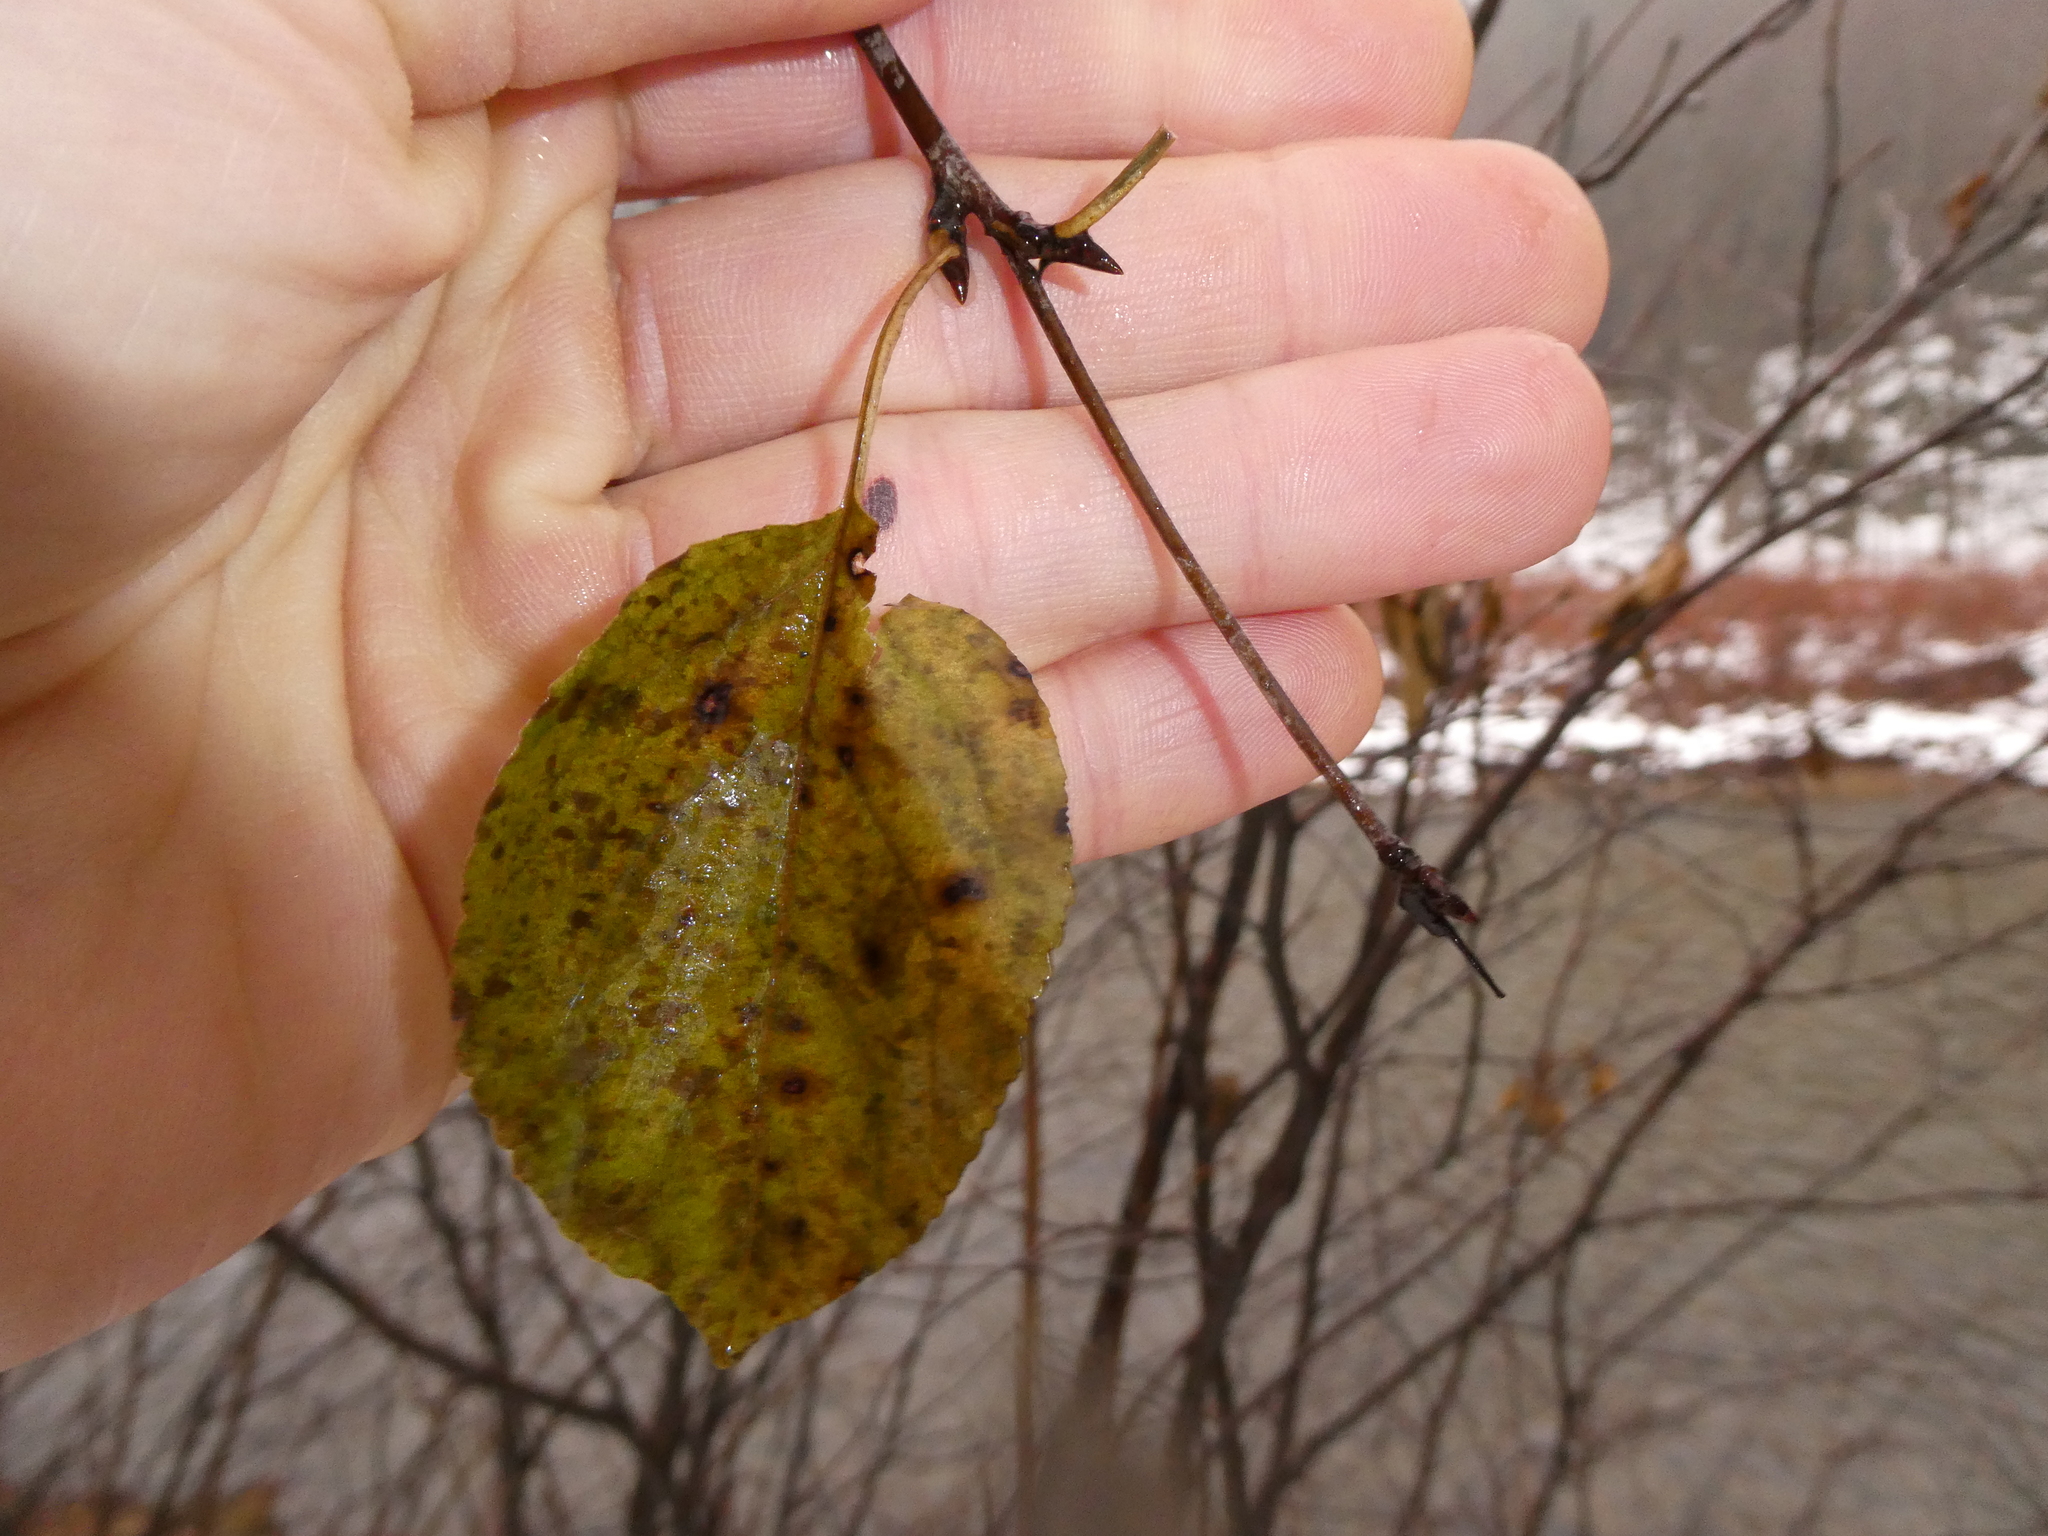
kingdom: Plantae
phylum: Tracheophyta
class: Magnoliopsida
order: Rosales
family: Rhamnaceae
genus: Rhamnus
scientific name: Rhamnus cathartica
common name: Common buckthorn
